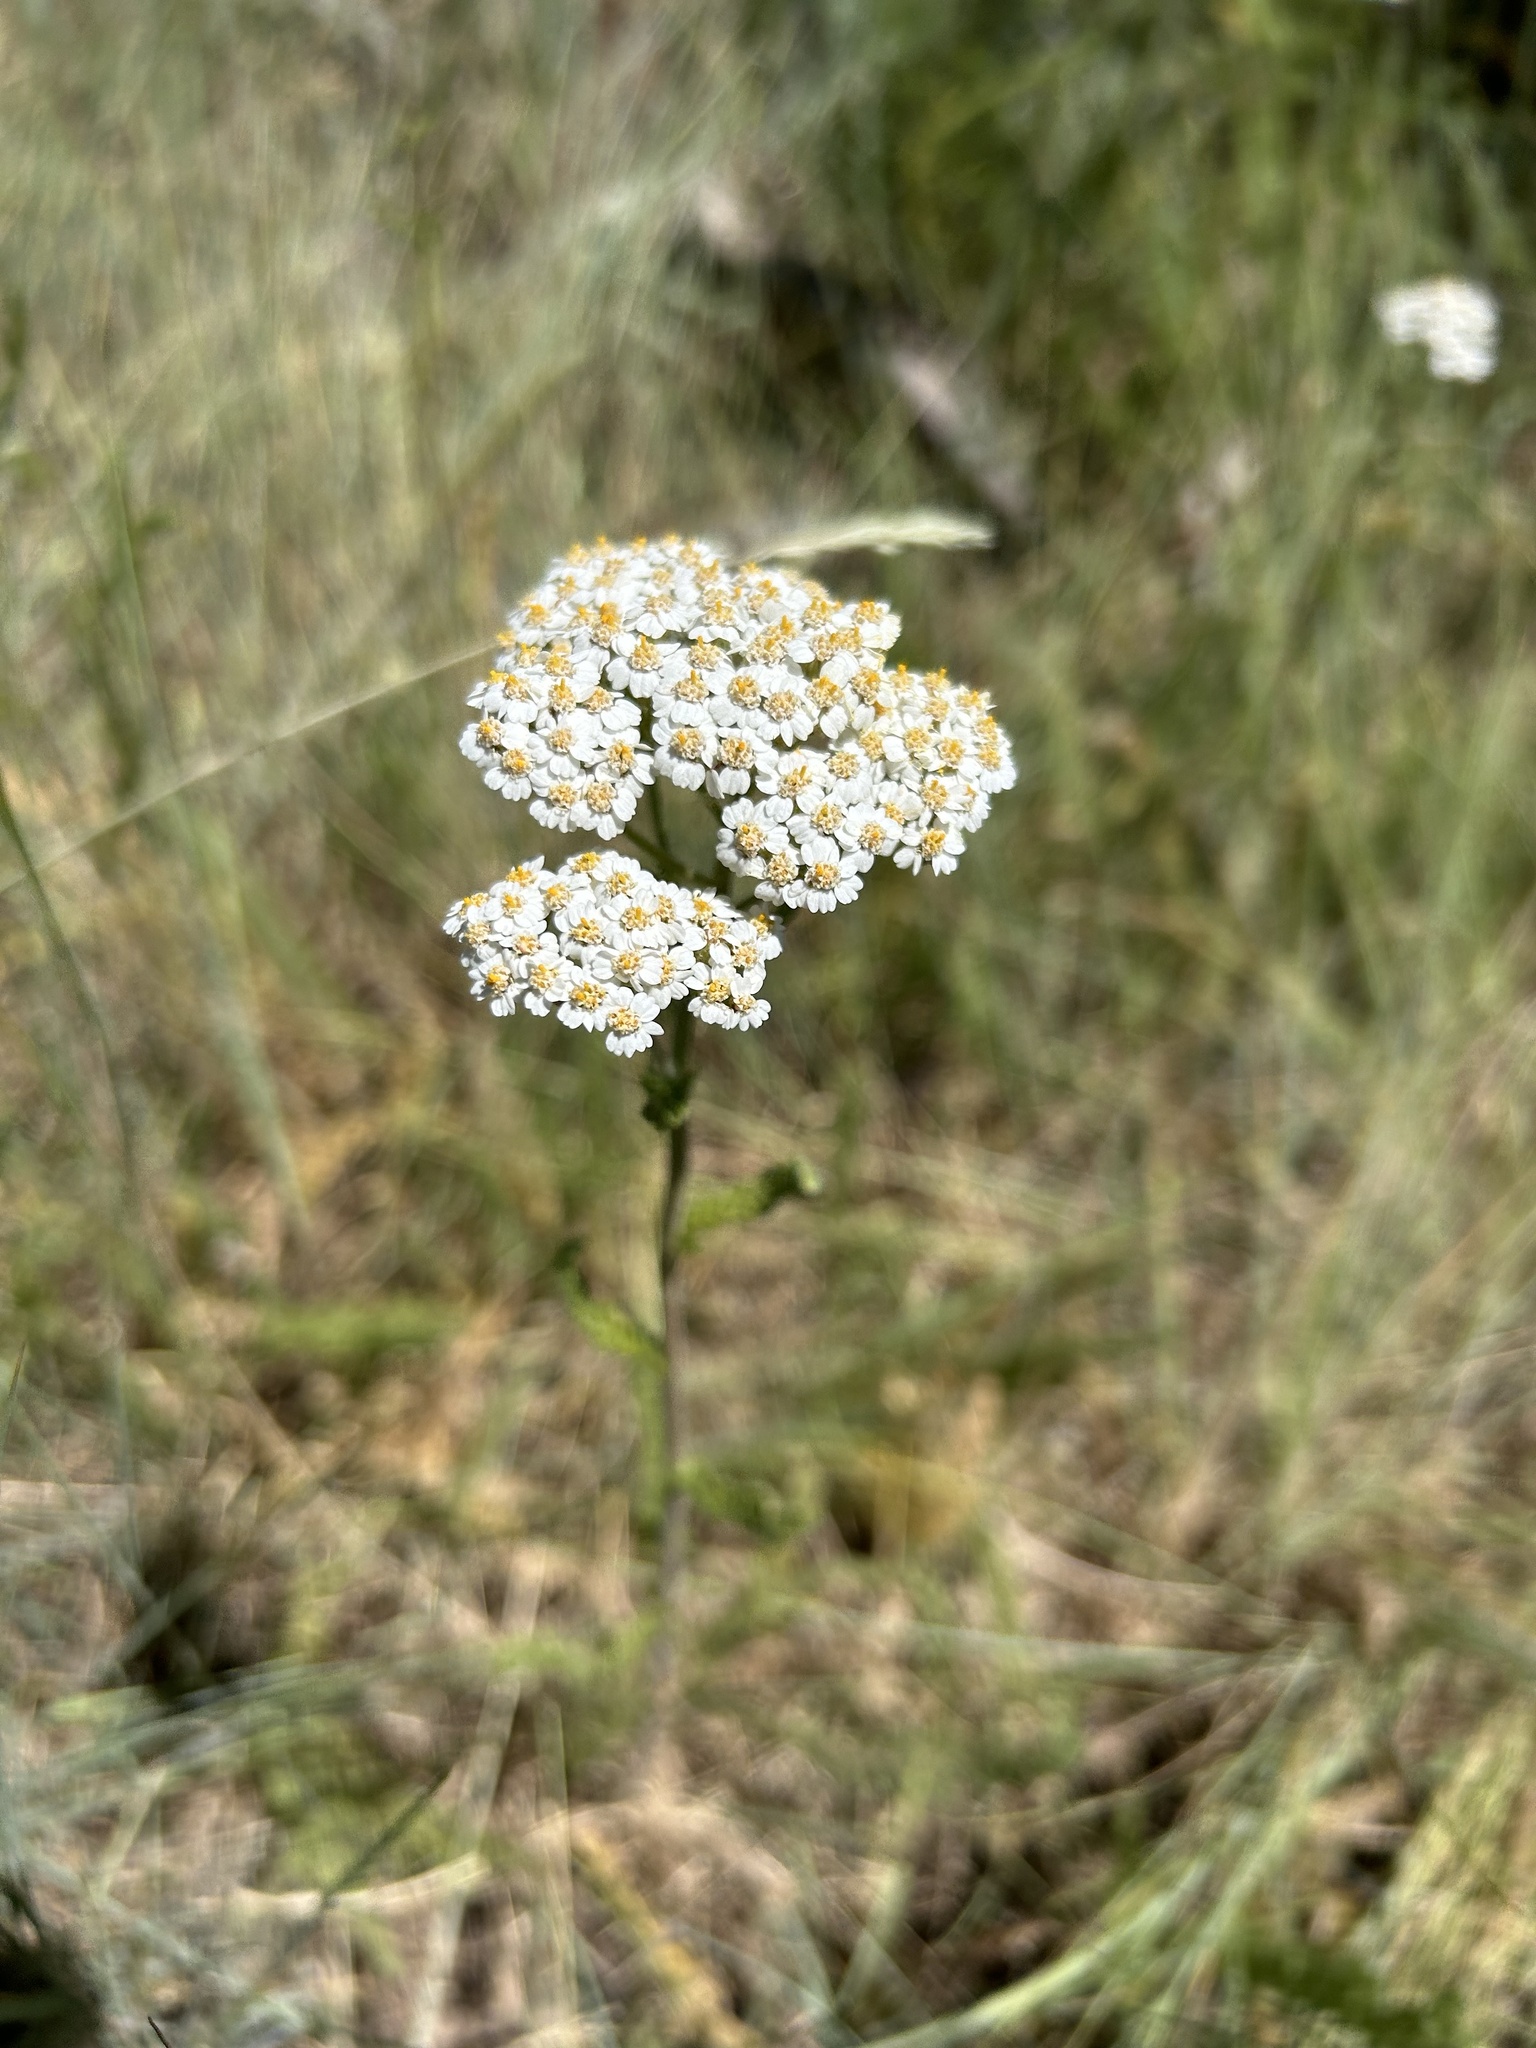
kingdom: Plantae
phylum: Tracheophyta
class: Magnoliopsida
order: Asterales
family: Asteraceae
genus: Achillea
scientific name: Achillea millefolium
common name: Yarrow
